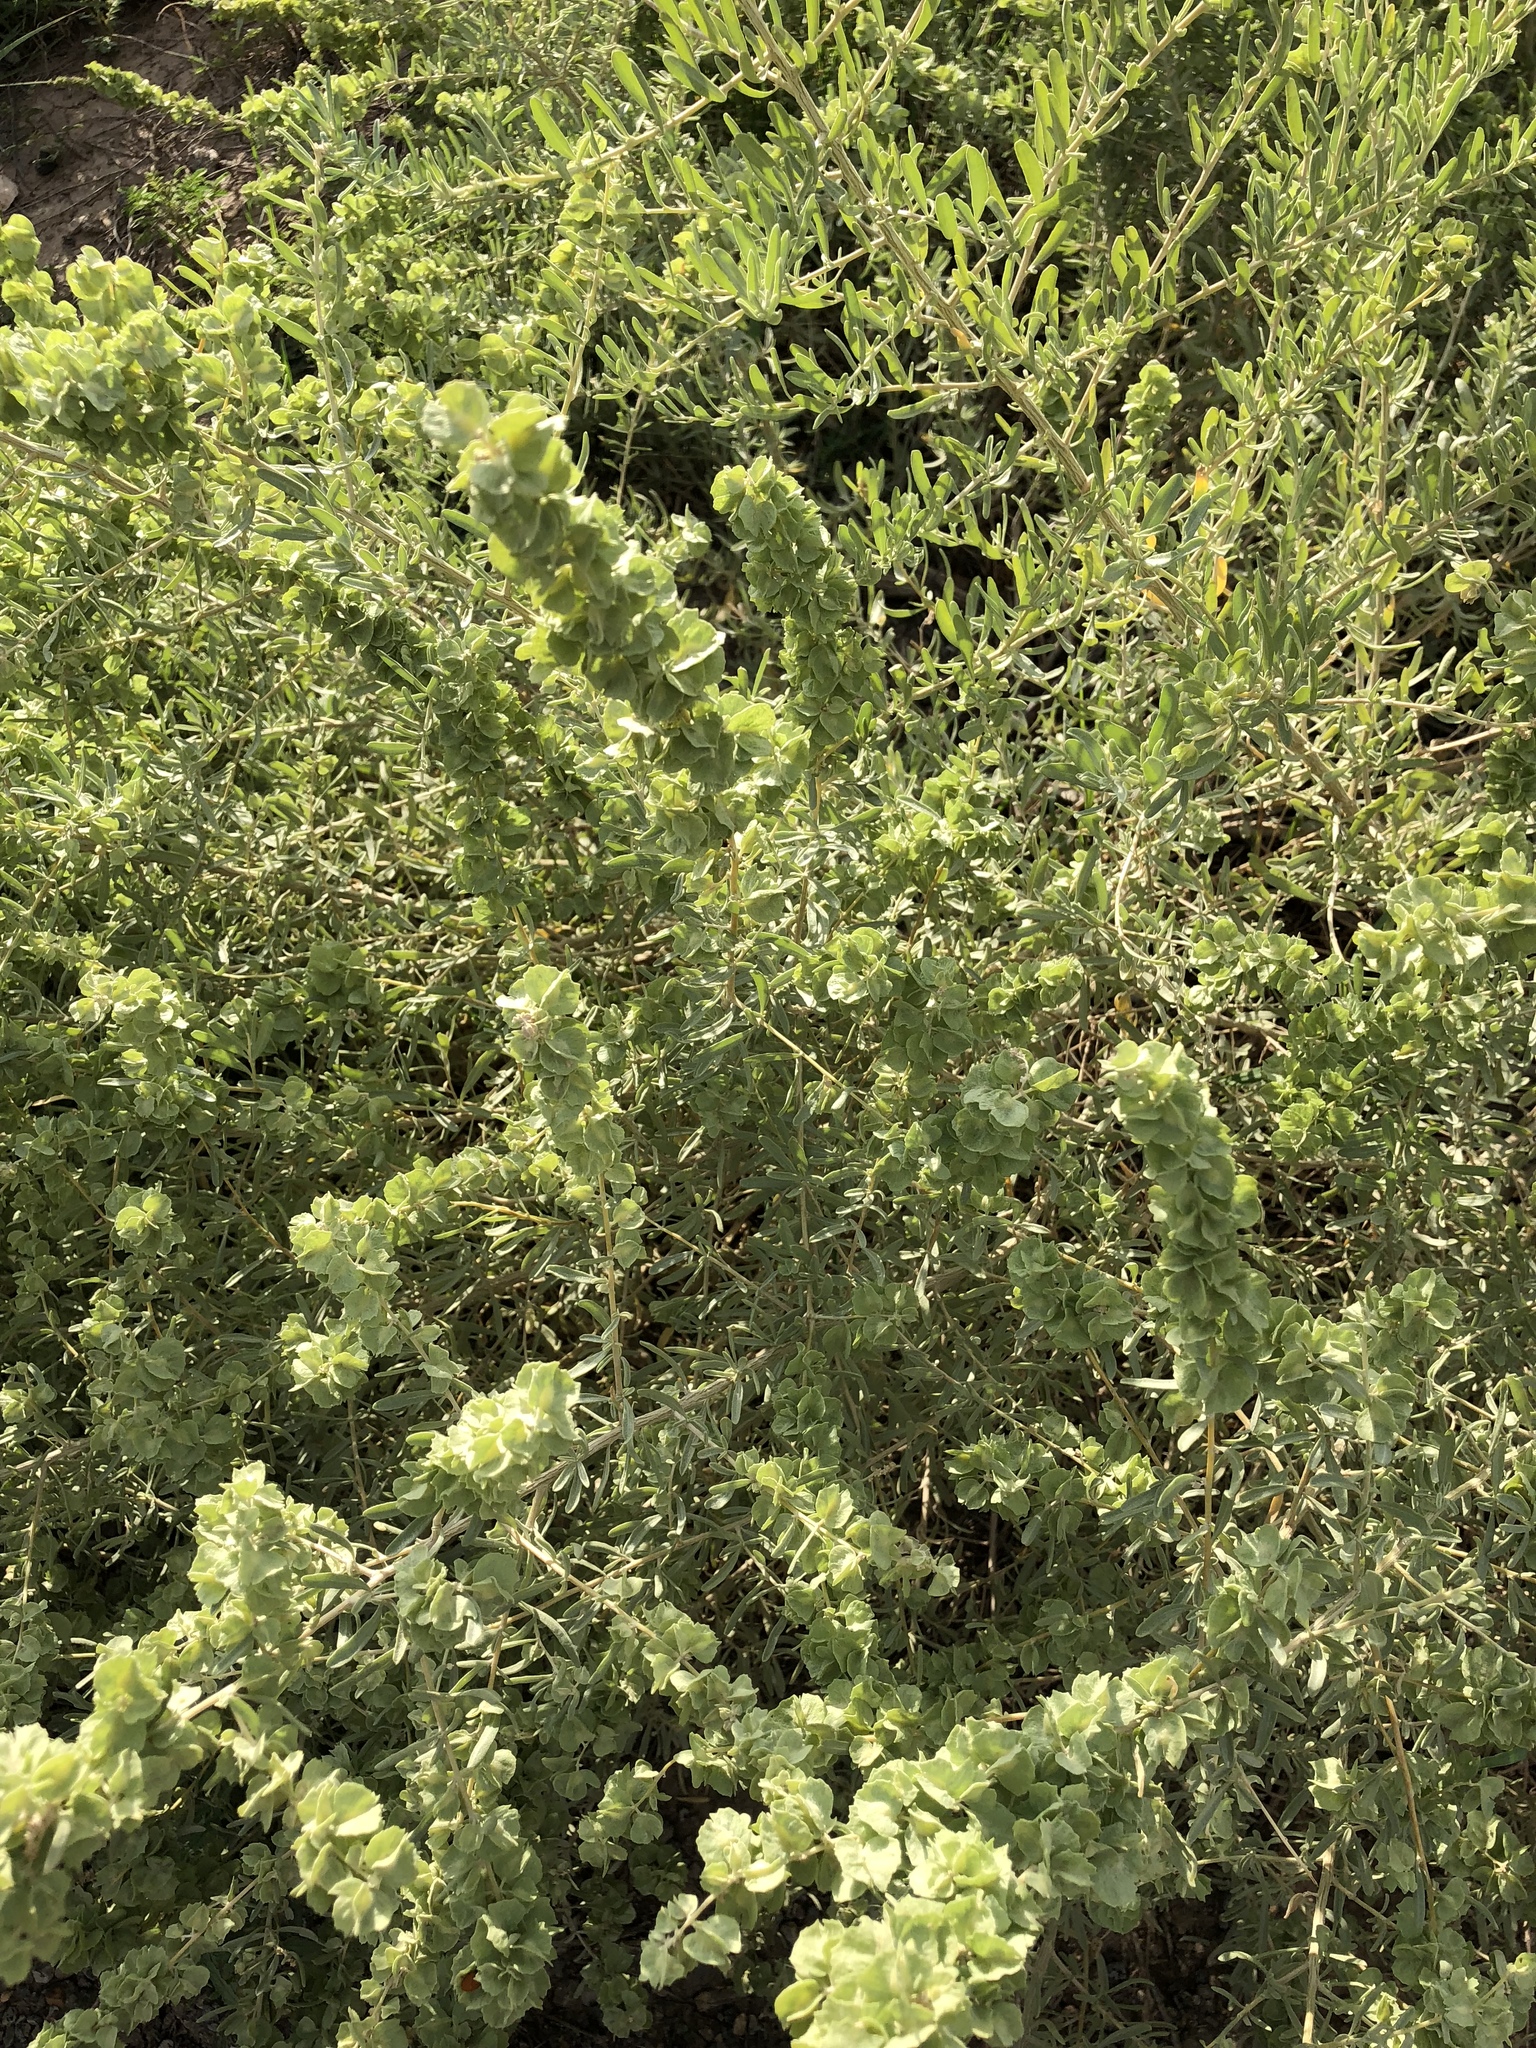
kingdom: Plantae
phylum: Tracheophyta
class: Magnoliopsida
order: Caryophyllales
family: Amaranthaceae
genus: Atriplex
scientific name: Atriplex canescens
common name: Four-wing saltbush
